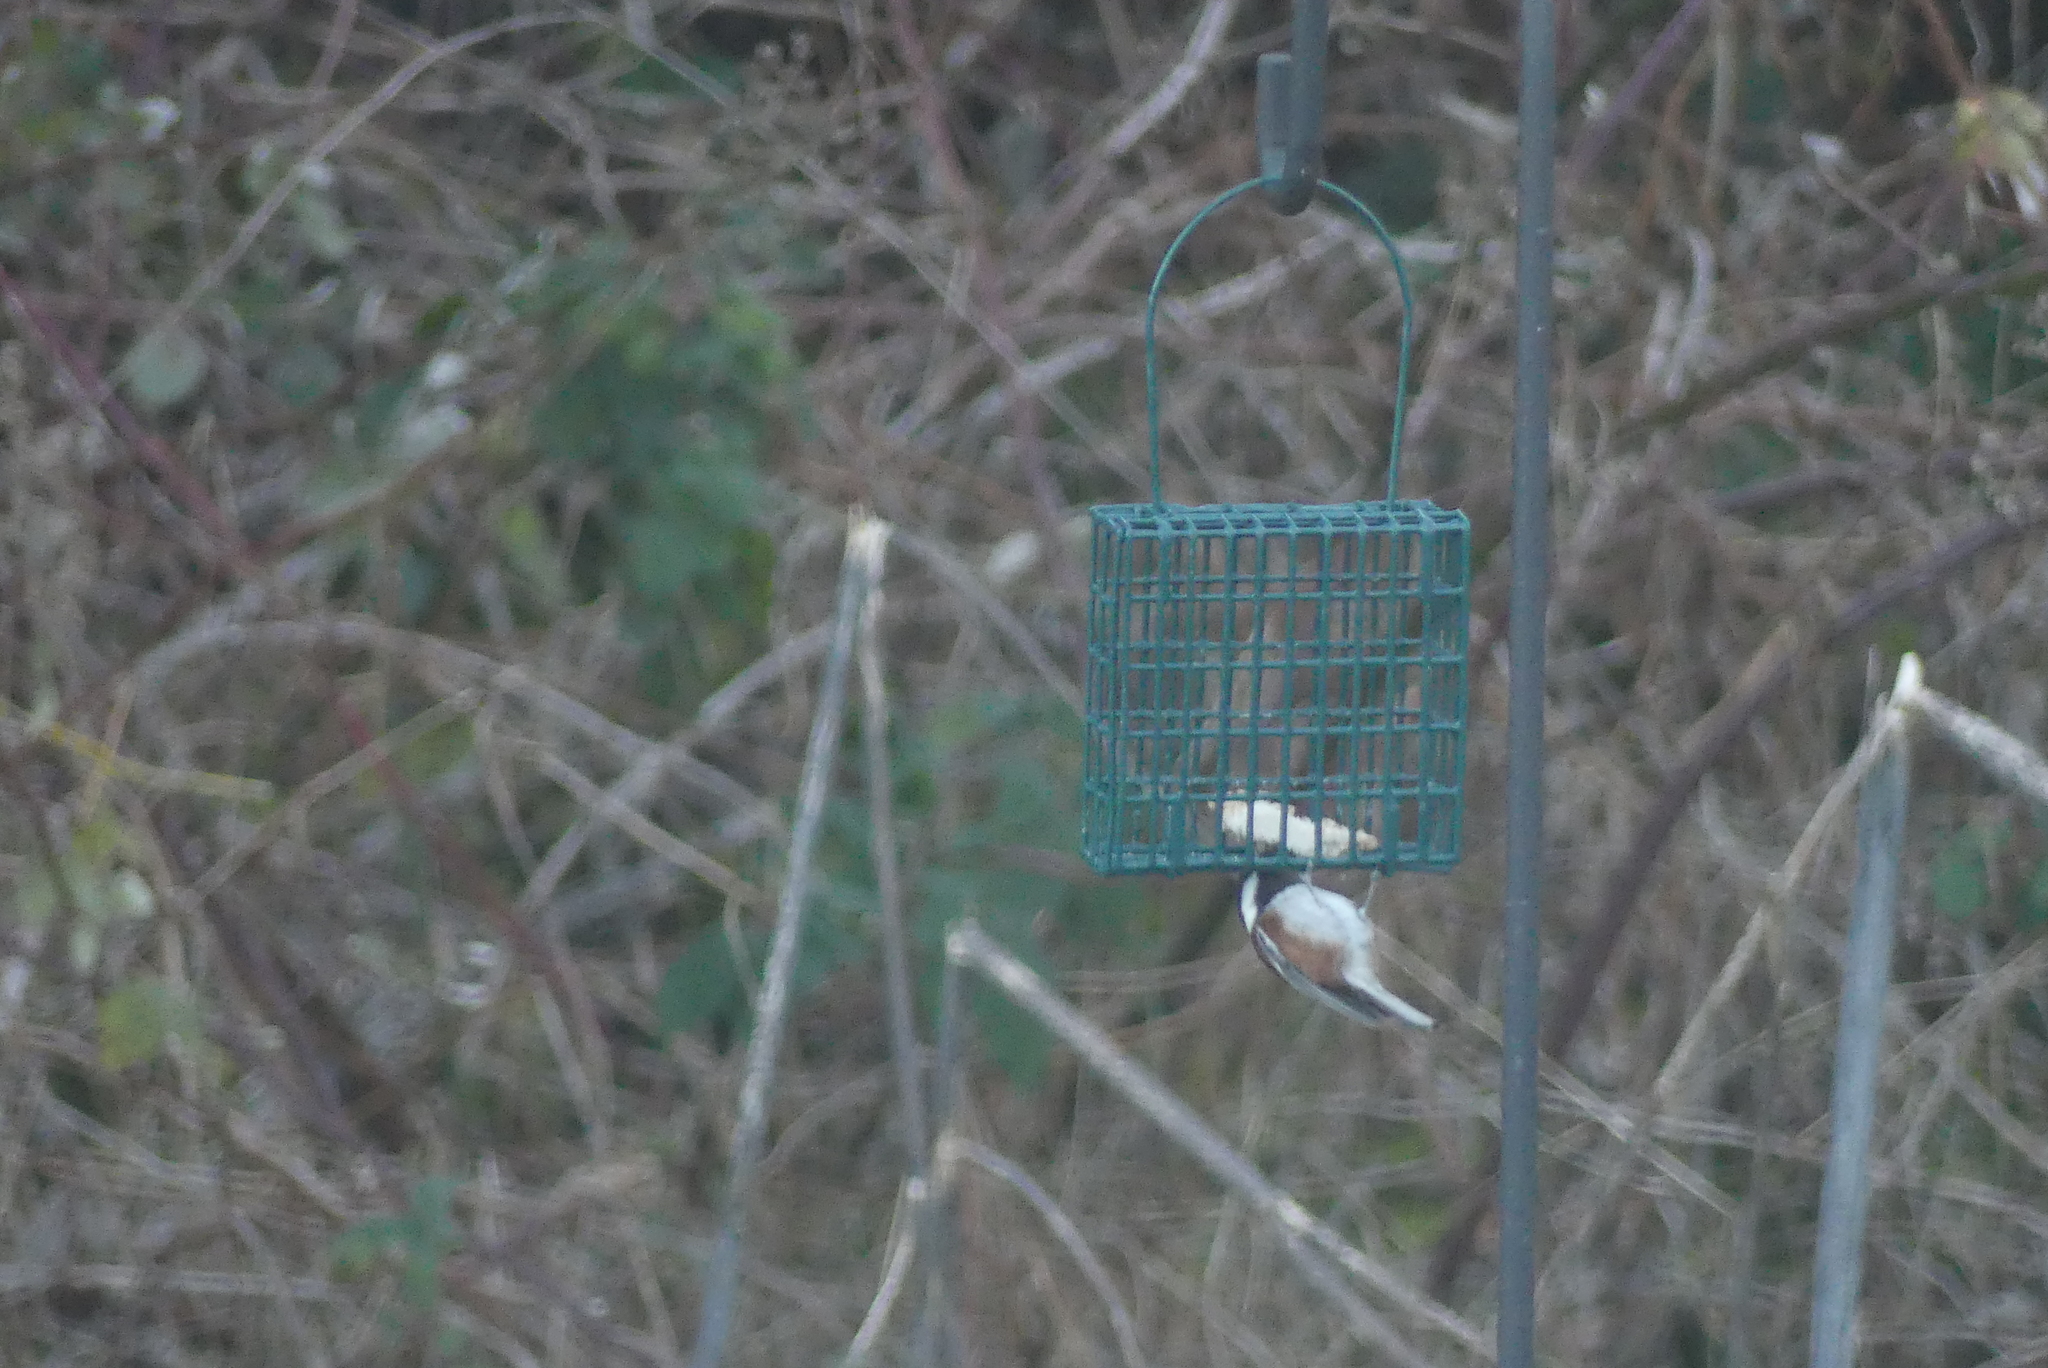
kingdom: Animalia
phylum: Chordata
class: Aves
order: Passeriformes
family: Paridae
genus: Poecile
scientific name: Poecile rufescens
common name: Chestnut-backed chickadee
